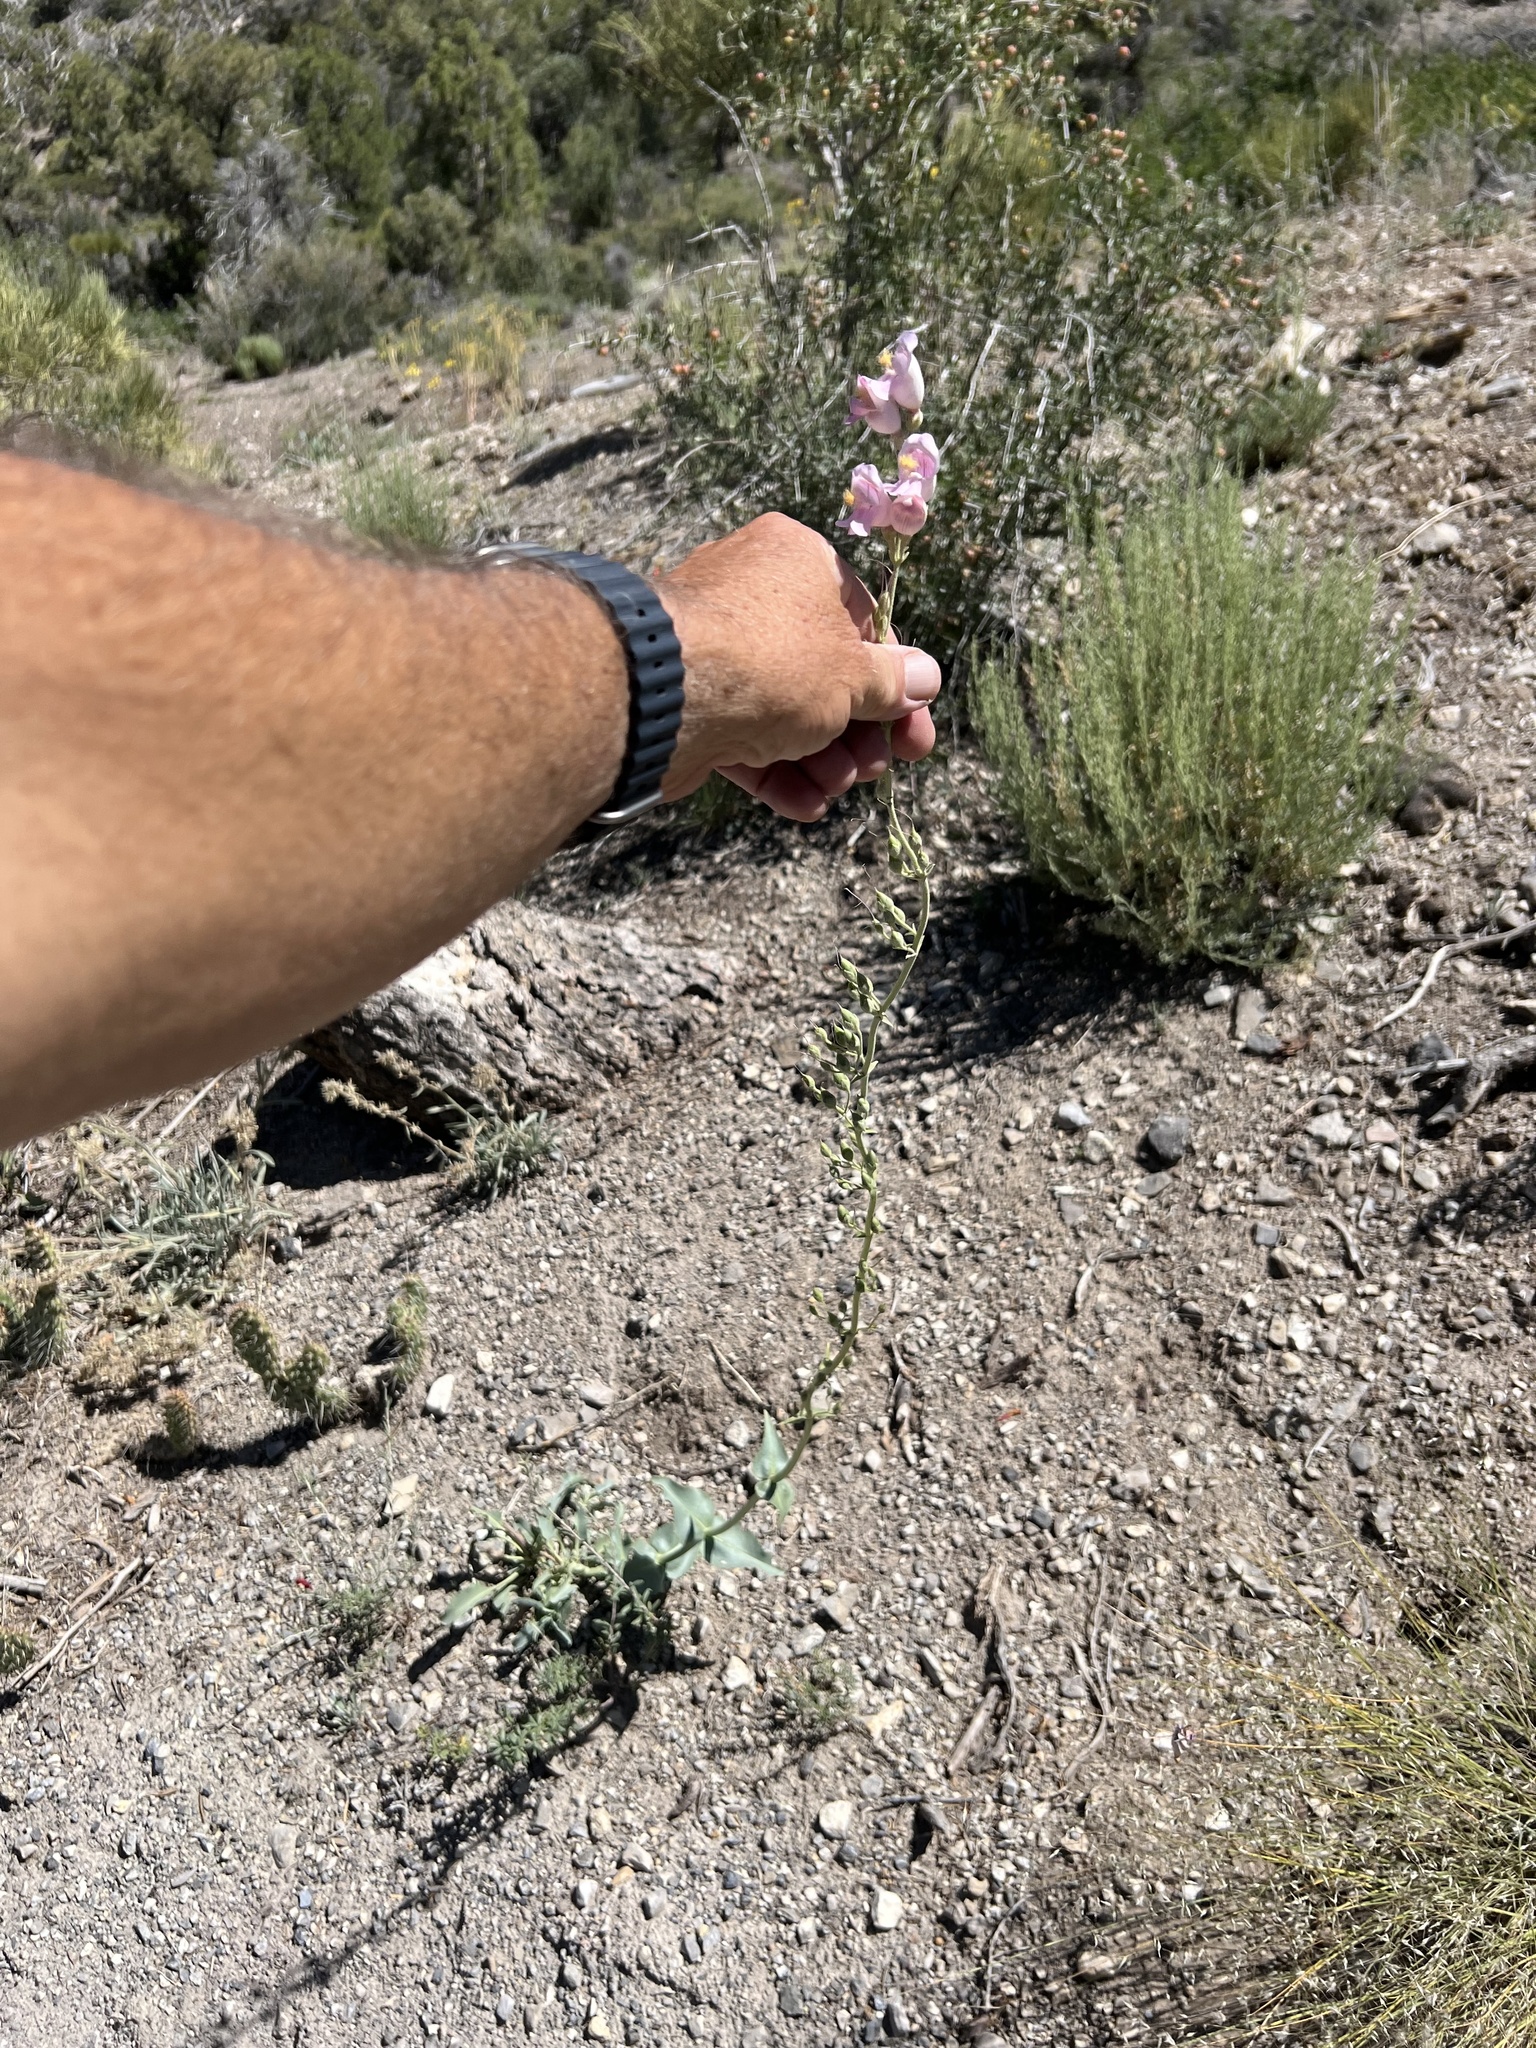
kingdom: Plantae
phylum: Tracheophyta
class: Magnoliopsida
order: Lamiales
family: Plantaginaceae
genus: Penstemon
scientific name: Penstemon palmeri
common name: Palmer penstemon
